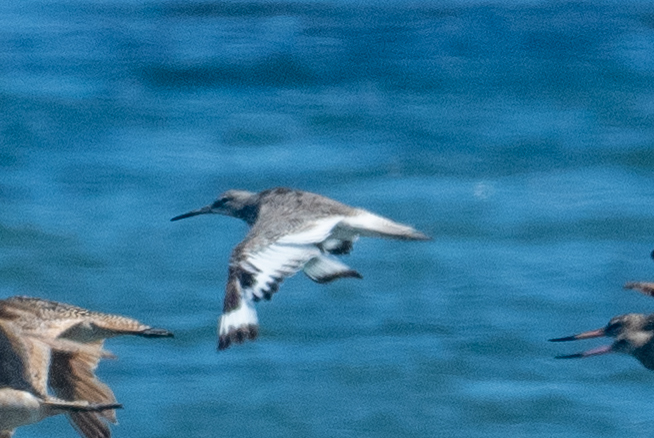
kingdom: Animalia
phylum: Chordata
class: Aves
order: Charadriiformes
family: Scolopacidae
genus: Tringa
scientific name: Tringa semipalmata
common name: Willet
